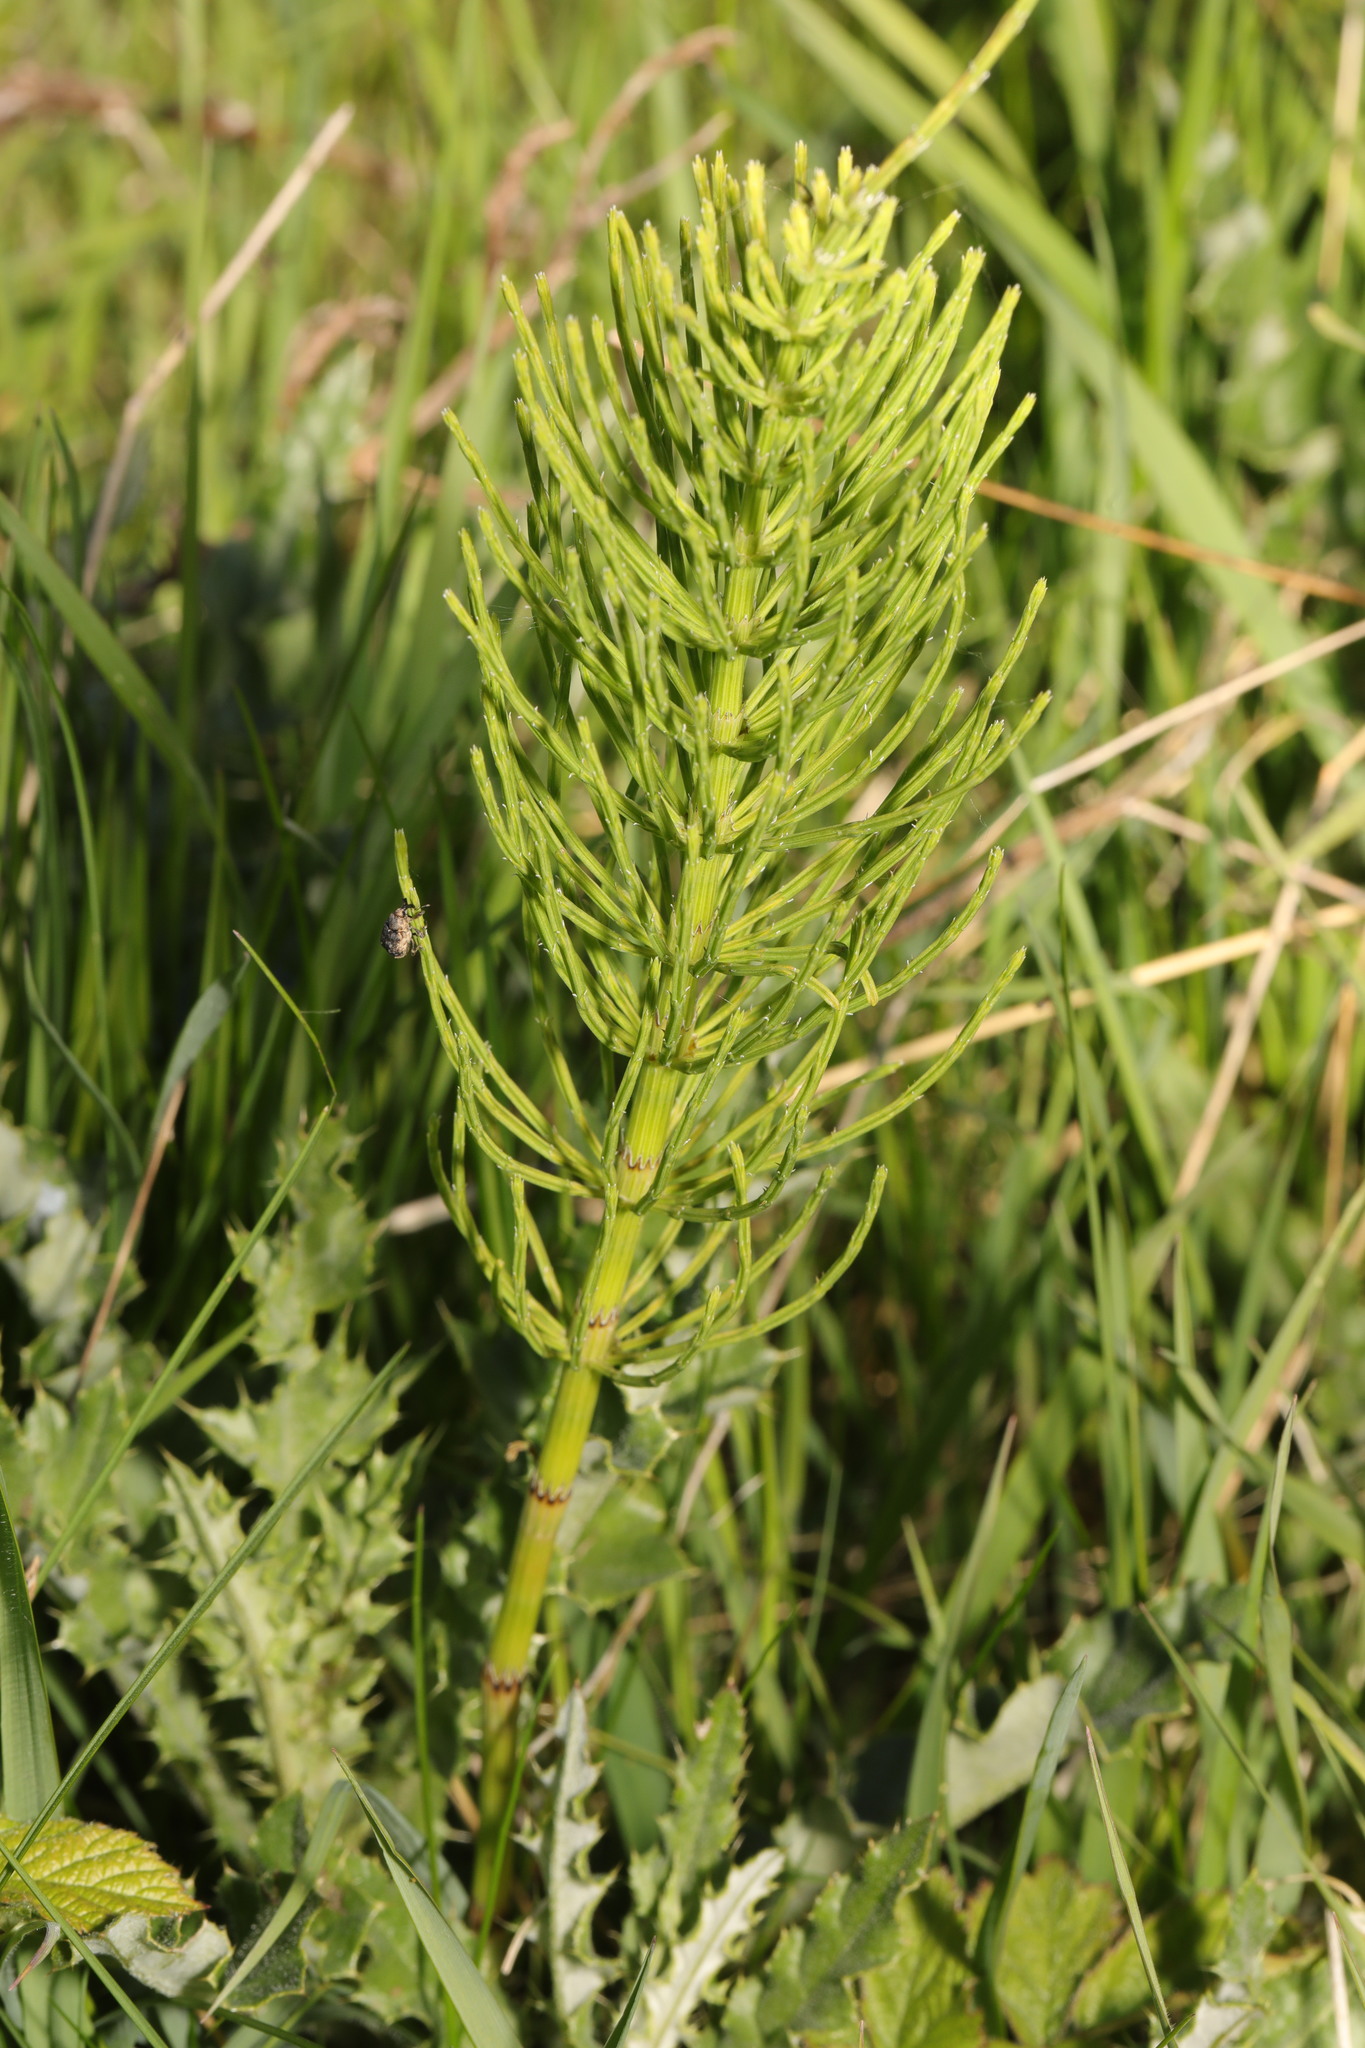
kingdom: Plantae
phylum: Tracheophyta
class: Polypodiopsida
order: Equisetales
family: Equisetaceae
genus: Equisetum
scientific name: Equisetum arvense
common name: Field horsetail
